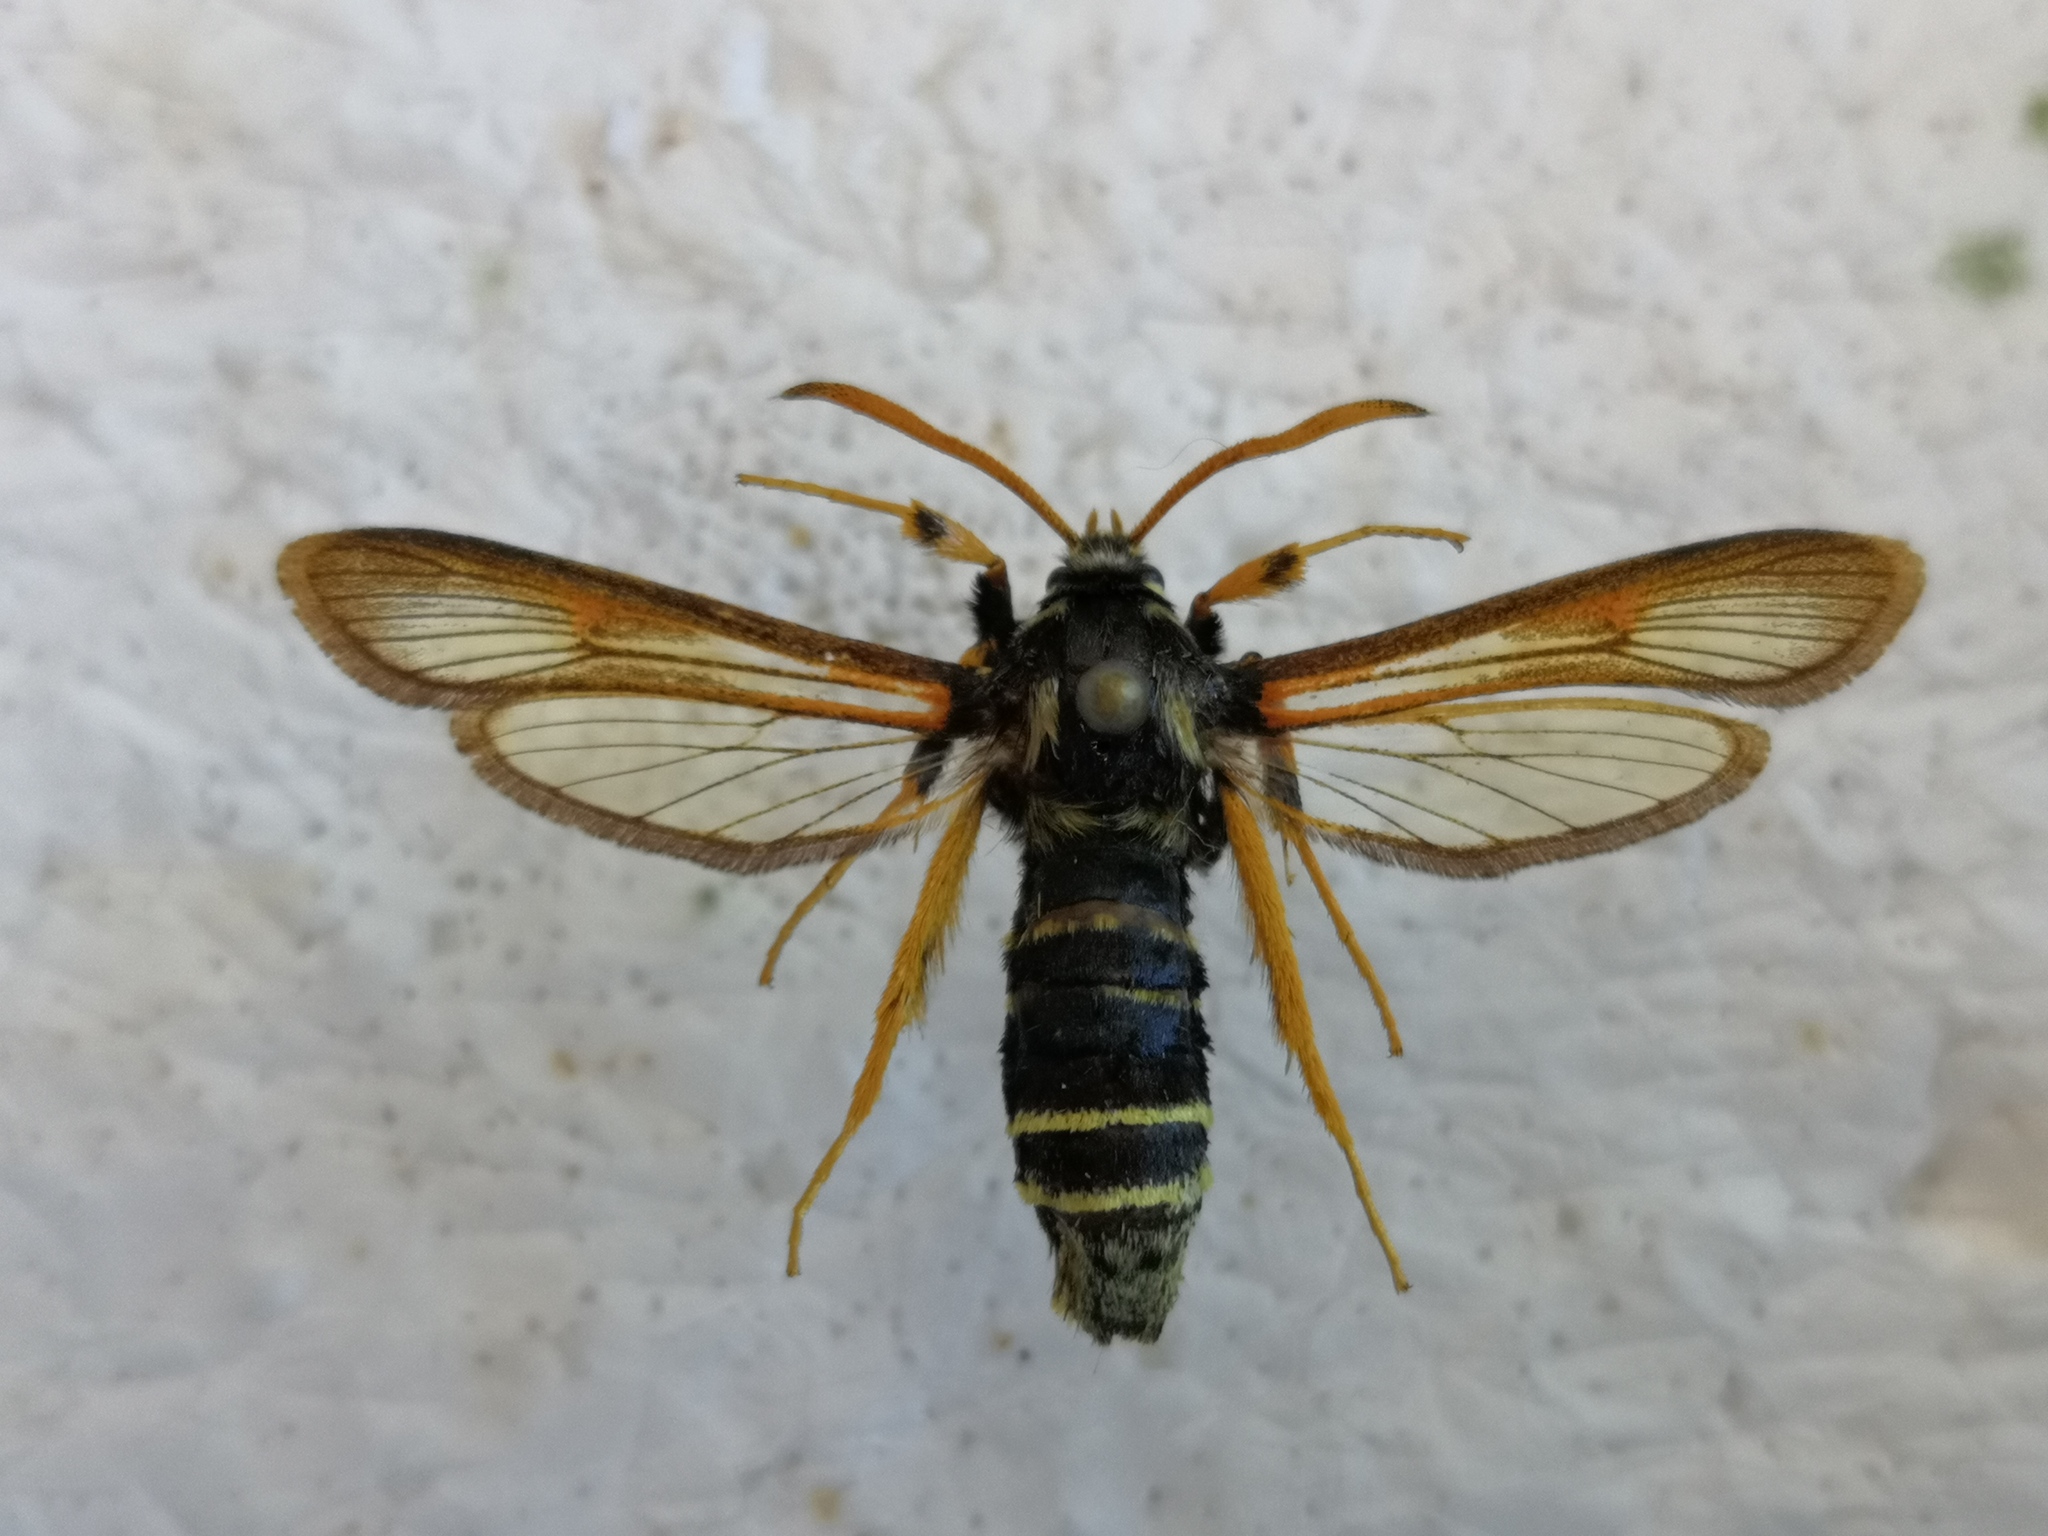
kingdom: Animalia
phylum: Arthropoda
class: Insecta
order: Lepidoptera
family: Sesiidae
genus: Eusphecia
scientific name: Eusphecia melanocephala
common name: Aspen clearwing
